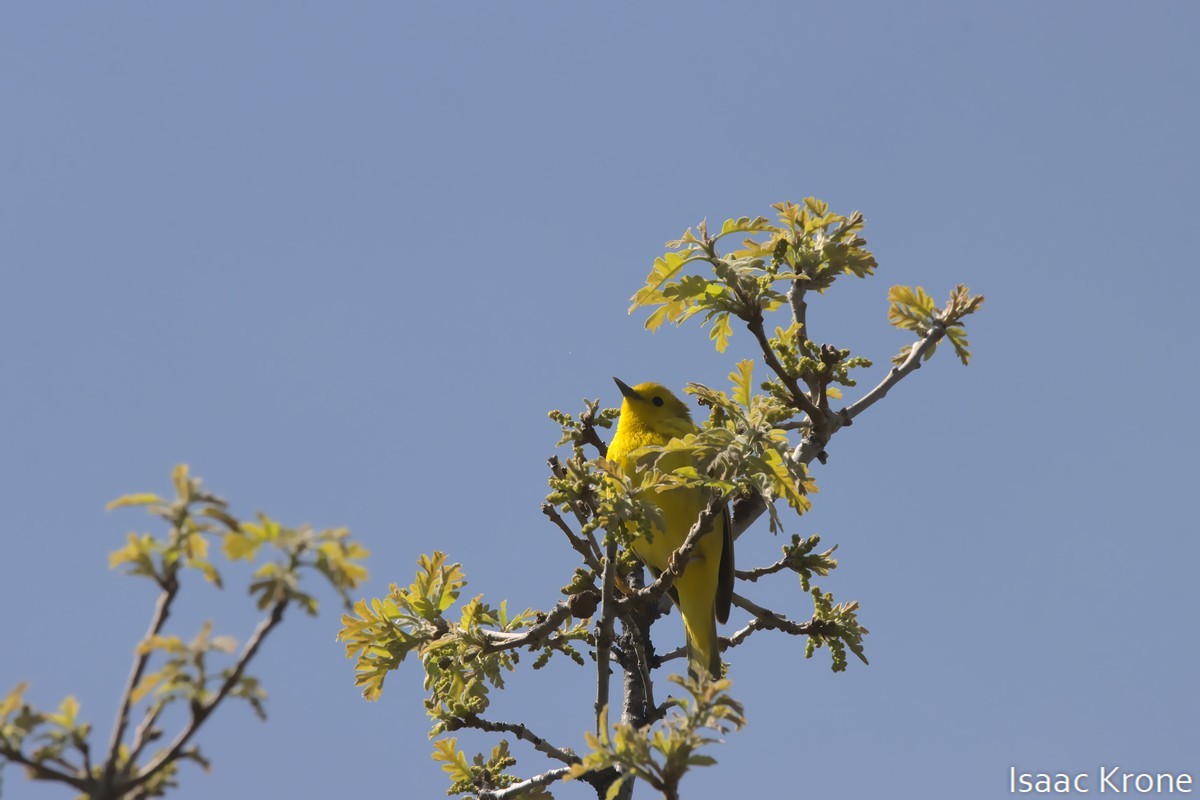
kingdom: Animalia
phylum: Chordata
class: Aves
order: Passeriformes
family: Parulidae
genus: Setophaga
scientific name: Setophaga petechia
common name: Yellow warbler
